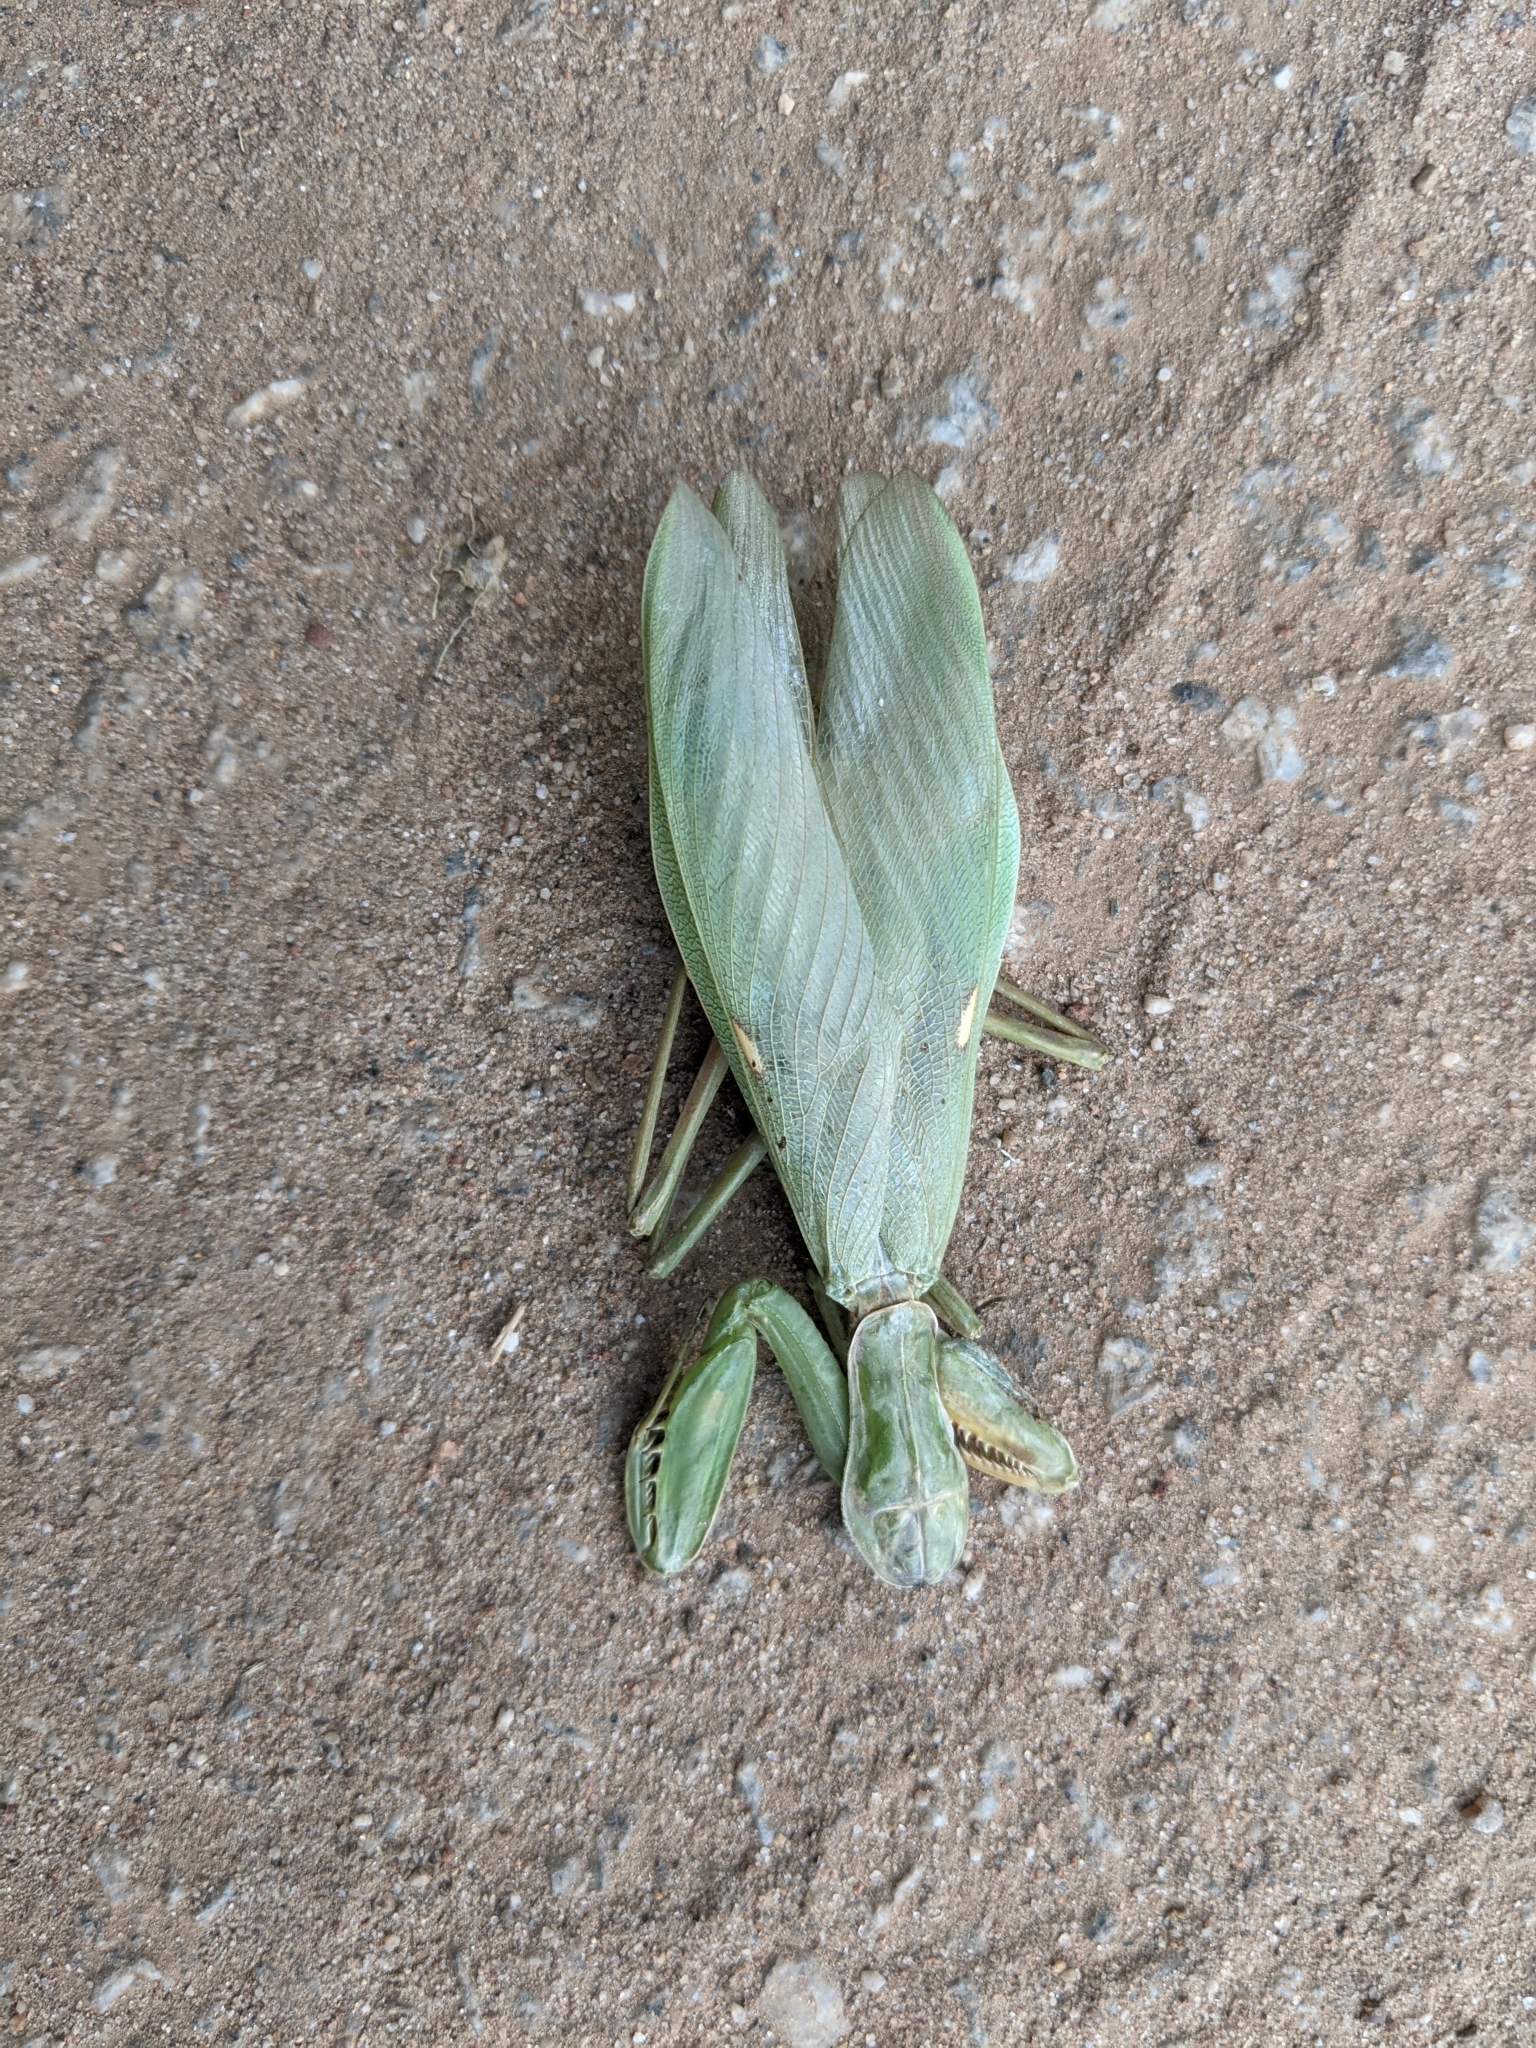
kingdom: Animalia
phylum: Arthropoda
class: Insecta
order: Mantodea
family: Mantidae
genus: Hierodula
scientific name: Hierodula tenuidentata
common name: Giant asian mantis
